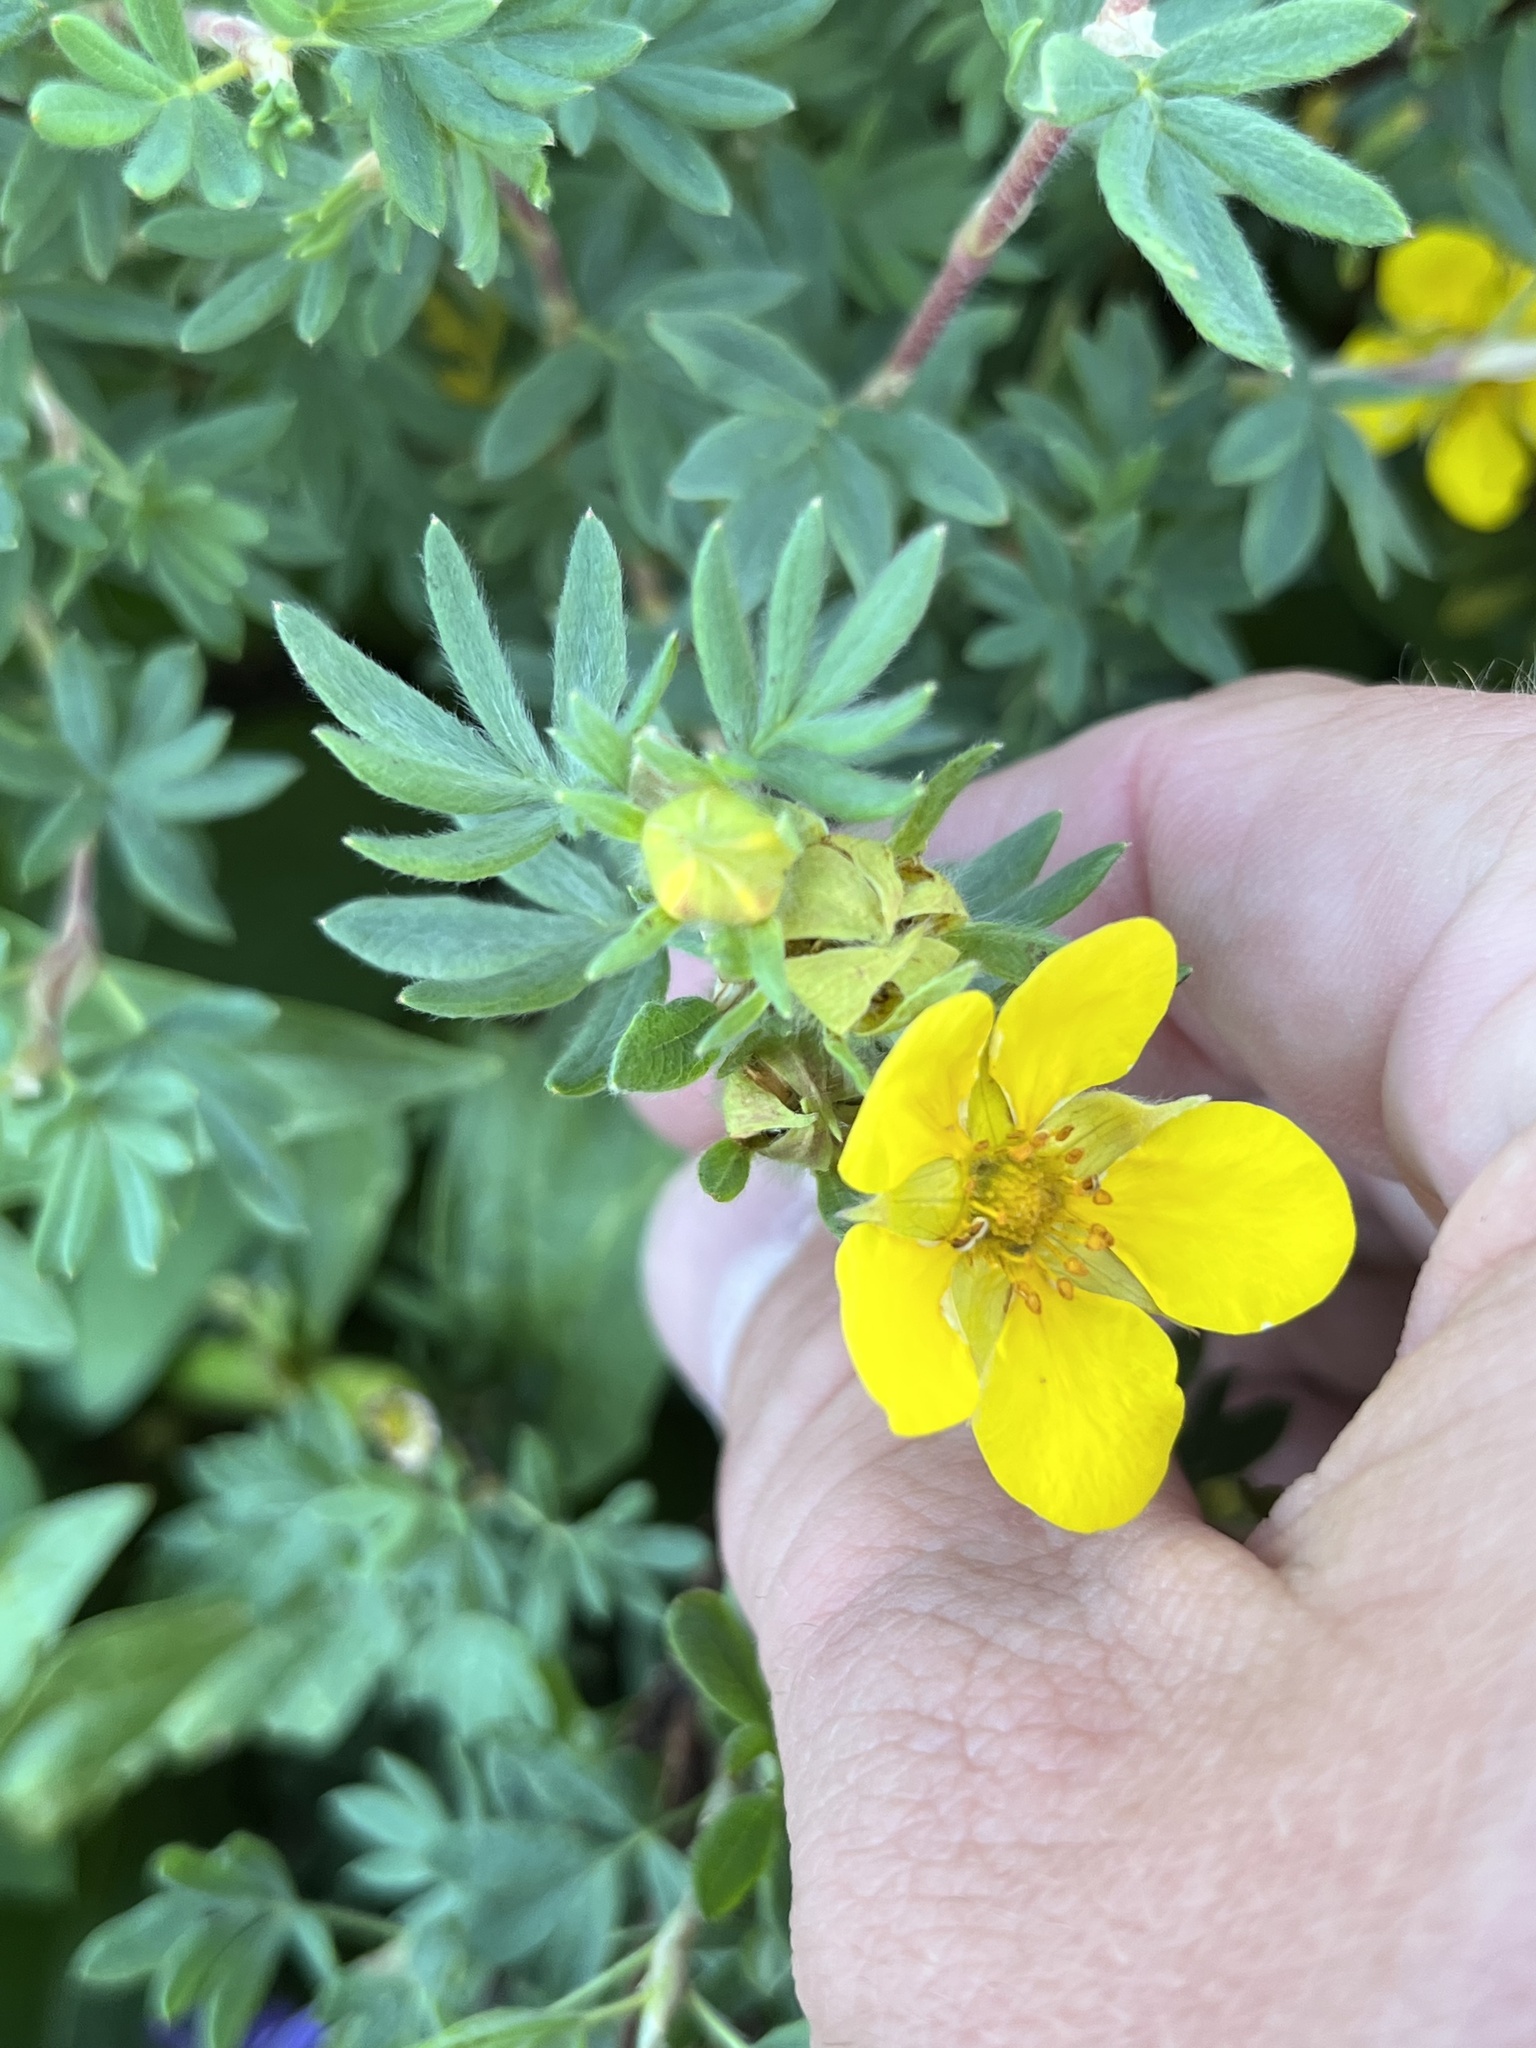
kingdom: Plantae
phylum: Tracheophyta
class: Magnoliopsida
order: Rosales
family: Rosaceae
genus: Dasiphora
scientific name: Dasiphora fruticosa
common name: Shrubby cinquefoil
